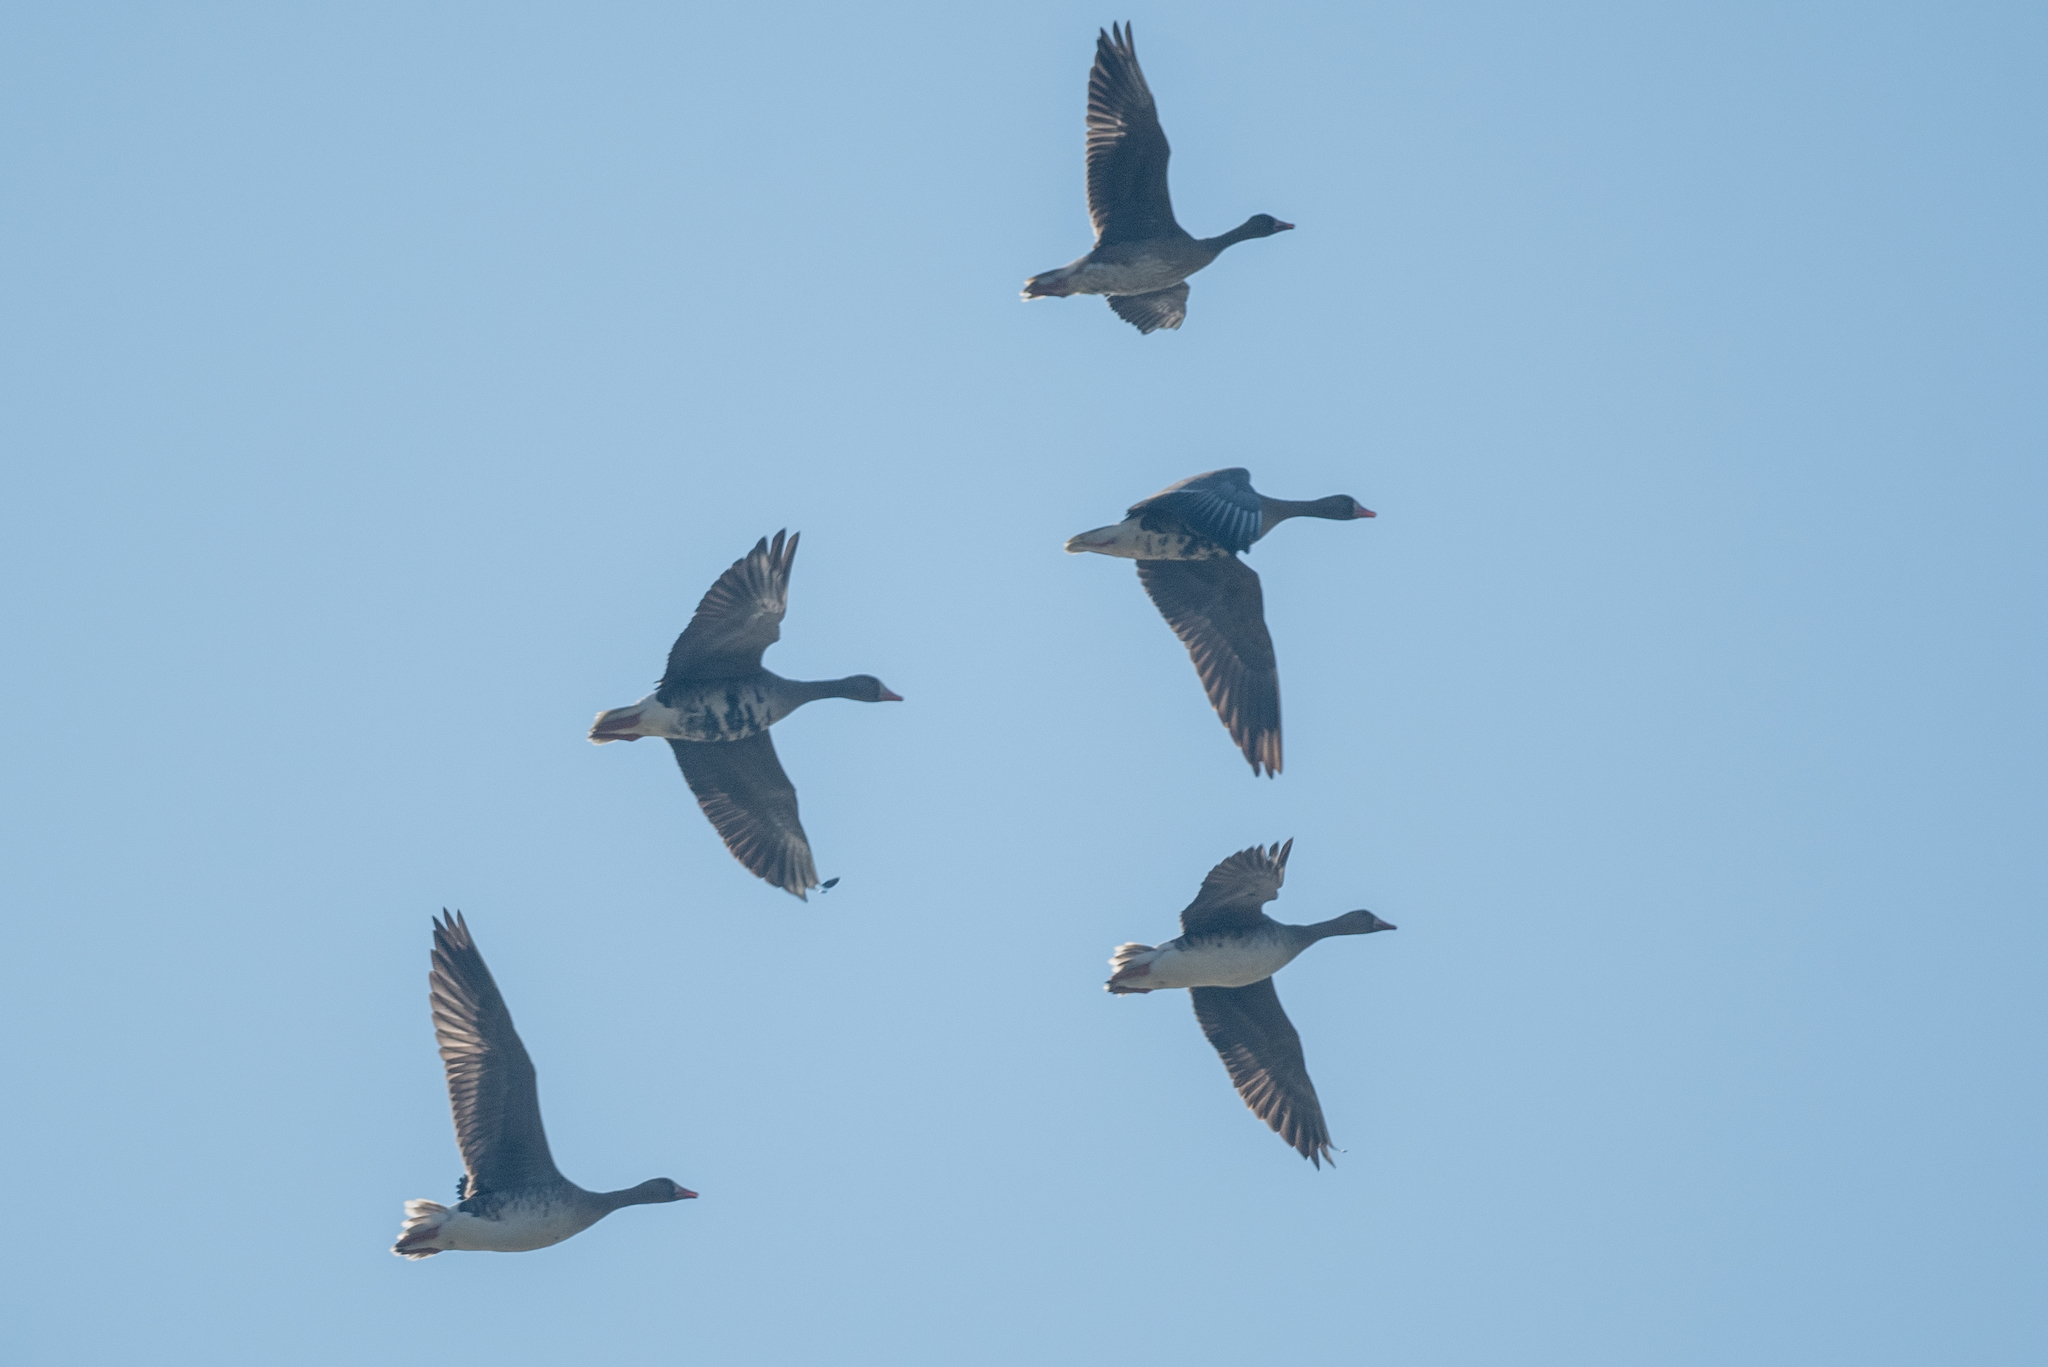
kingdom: Animalia
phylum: Chordata
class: Aves
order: Anseriformes
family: Anatidae
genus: Anser
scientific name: Anser albifrons
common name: Greater white-fronted goose
